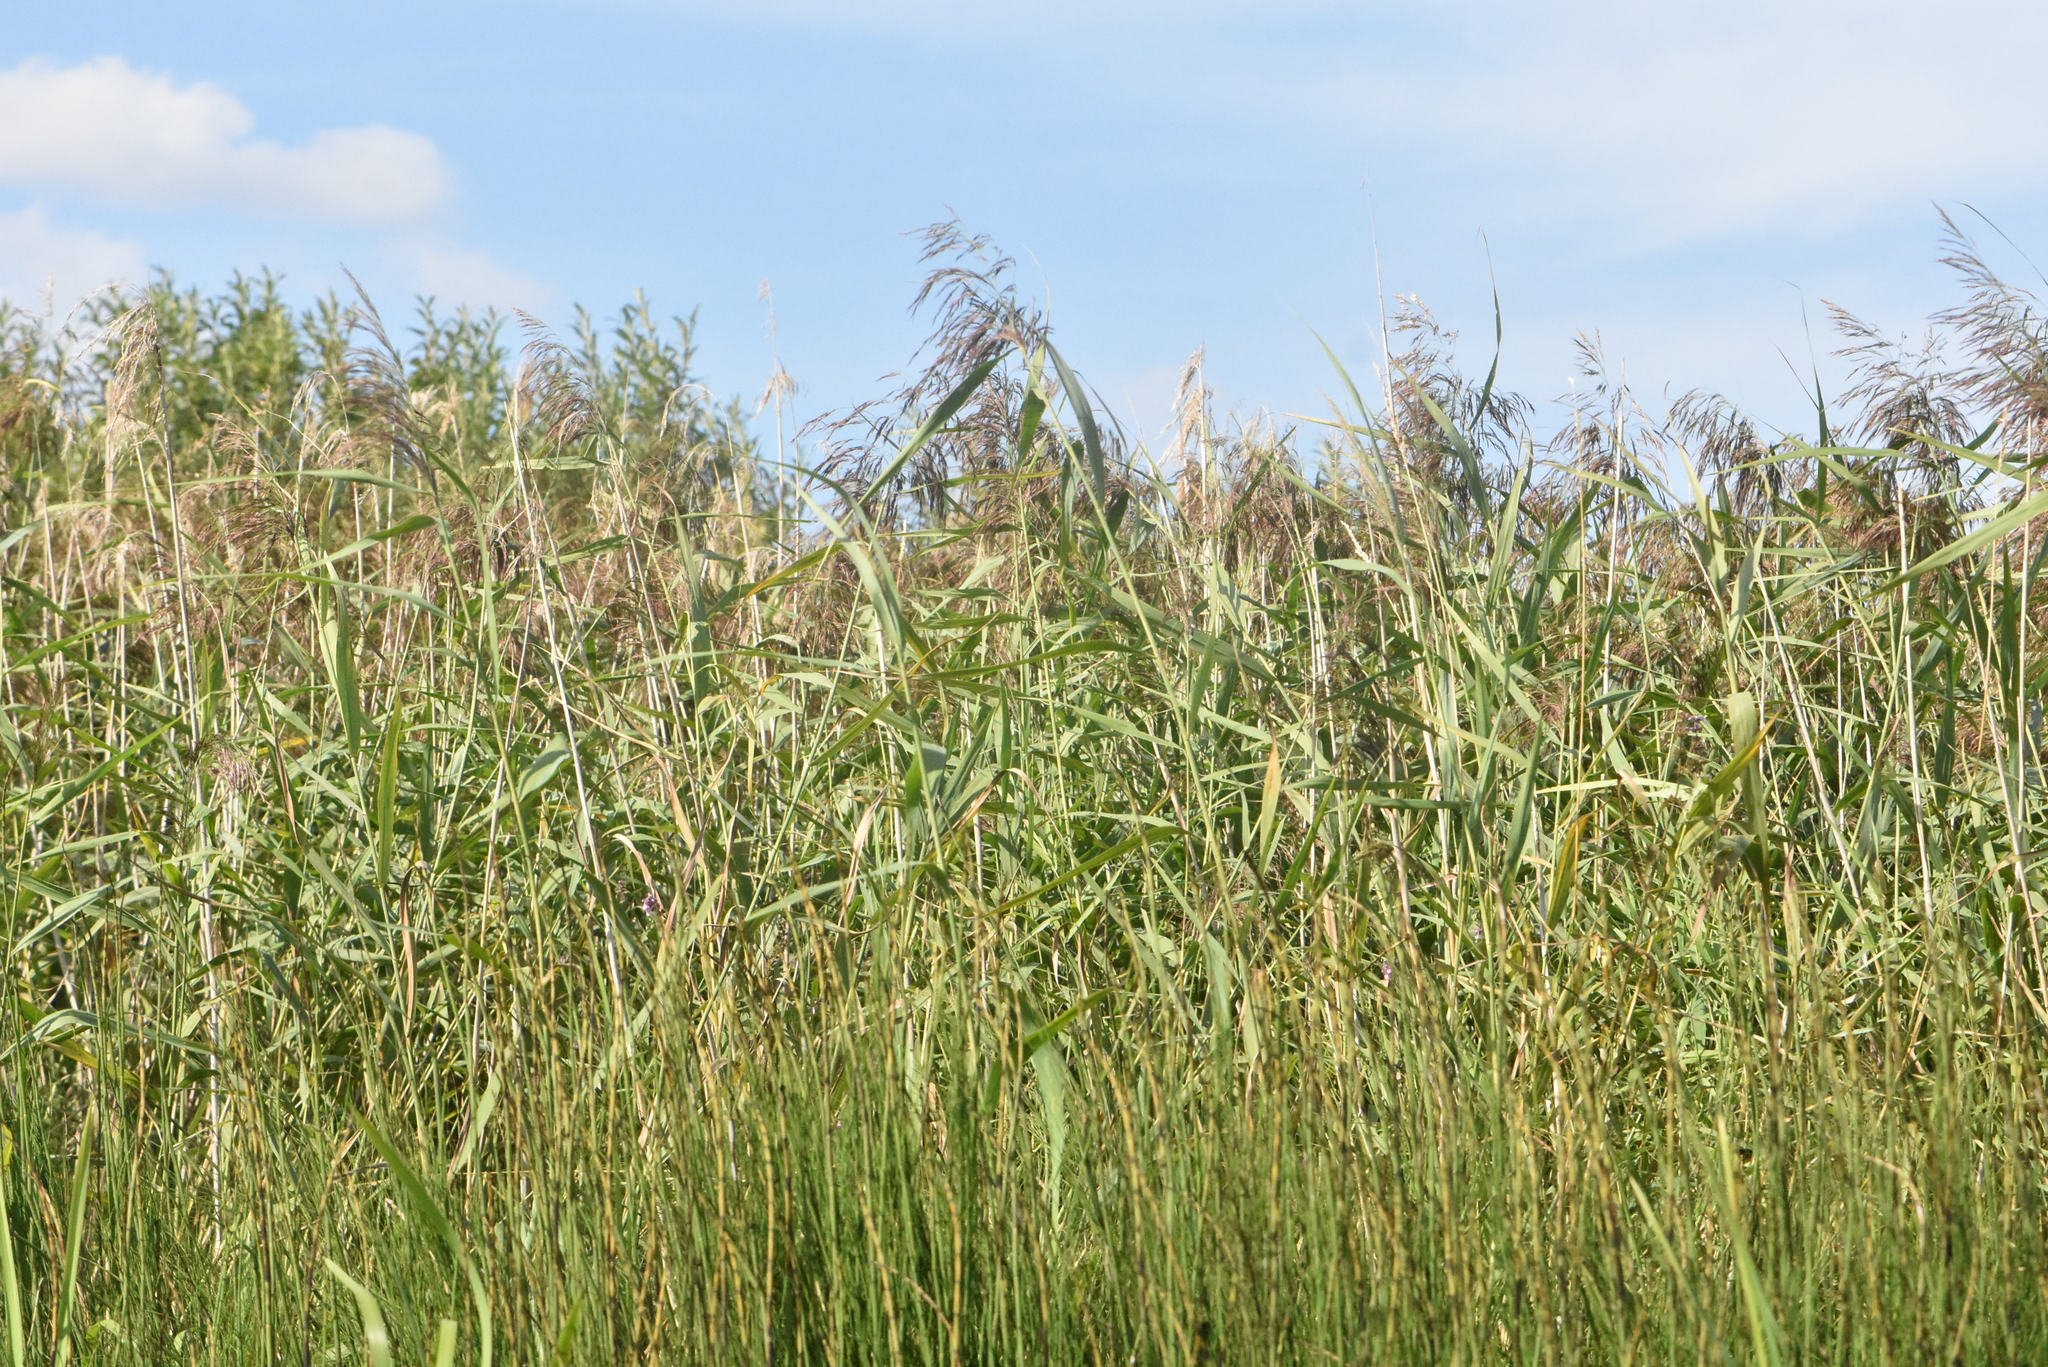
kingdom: Plantae
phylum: Tracheophyta
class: Liliopsida
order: Poales
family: Poaceae
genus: Phragmites
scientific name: Phragmites australis
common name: Common reed
